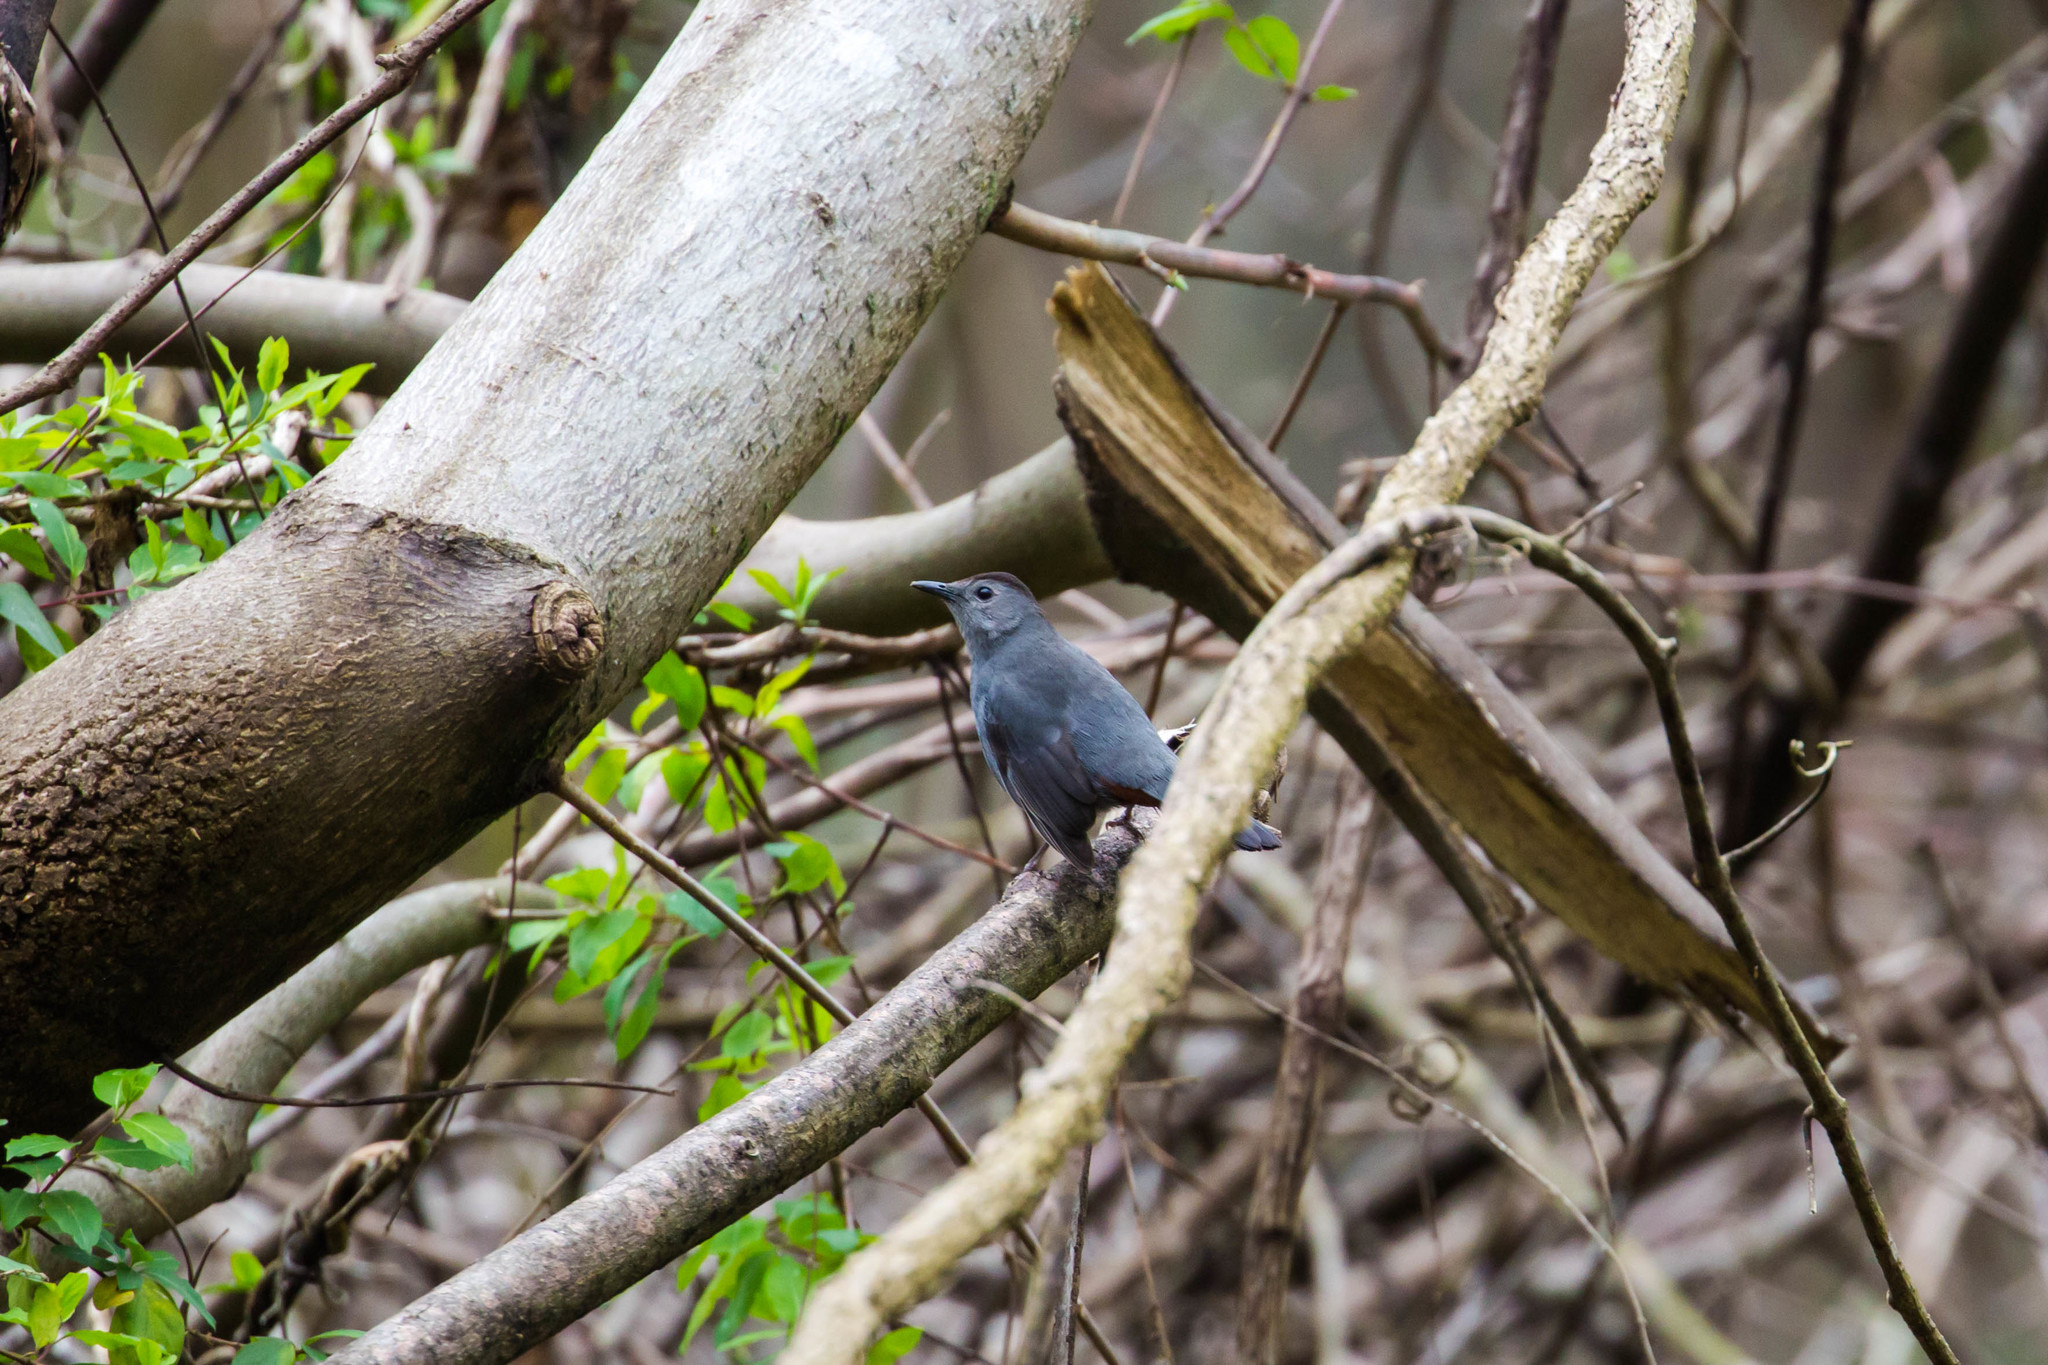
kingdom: Animalia
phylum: Chordata
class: Aves
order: Passeriformes
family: Mimidae
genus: Dumetella
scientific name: Dumetella carolinensis
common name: Gray catbird
